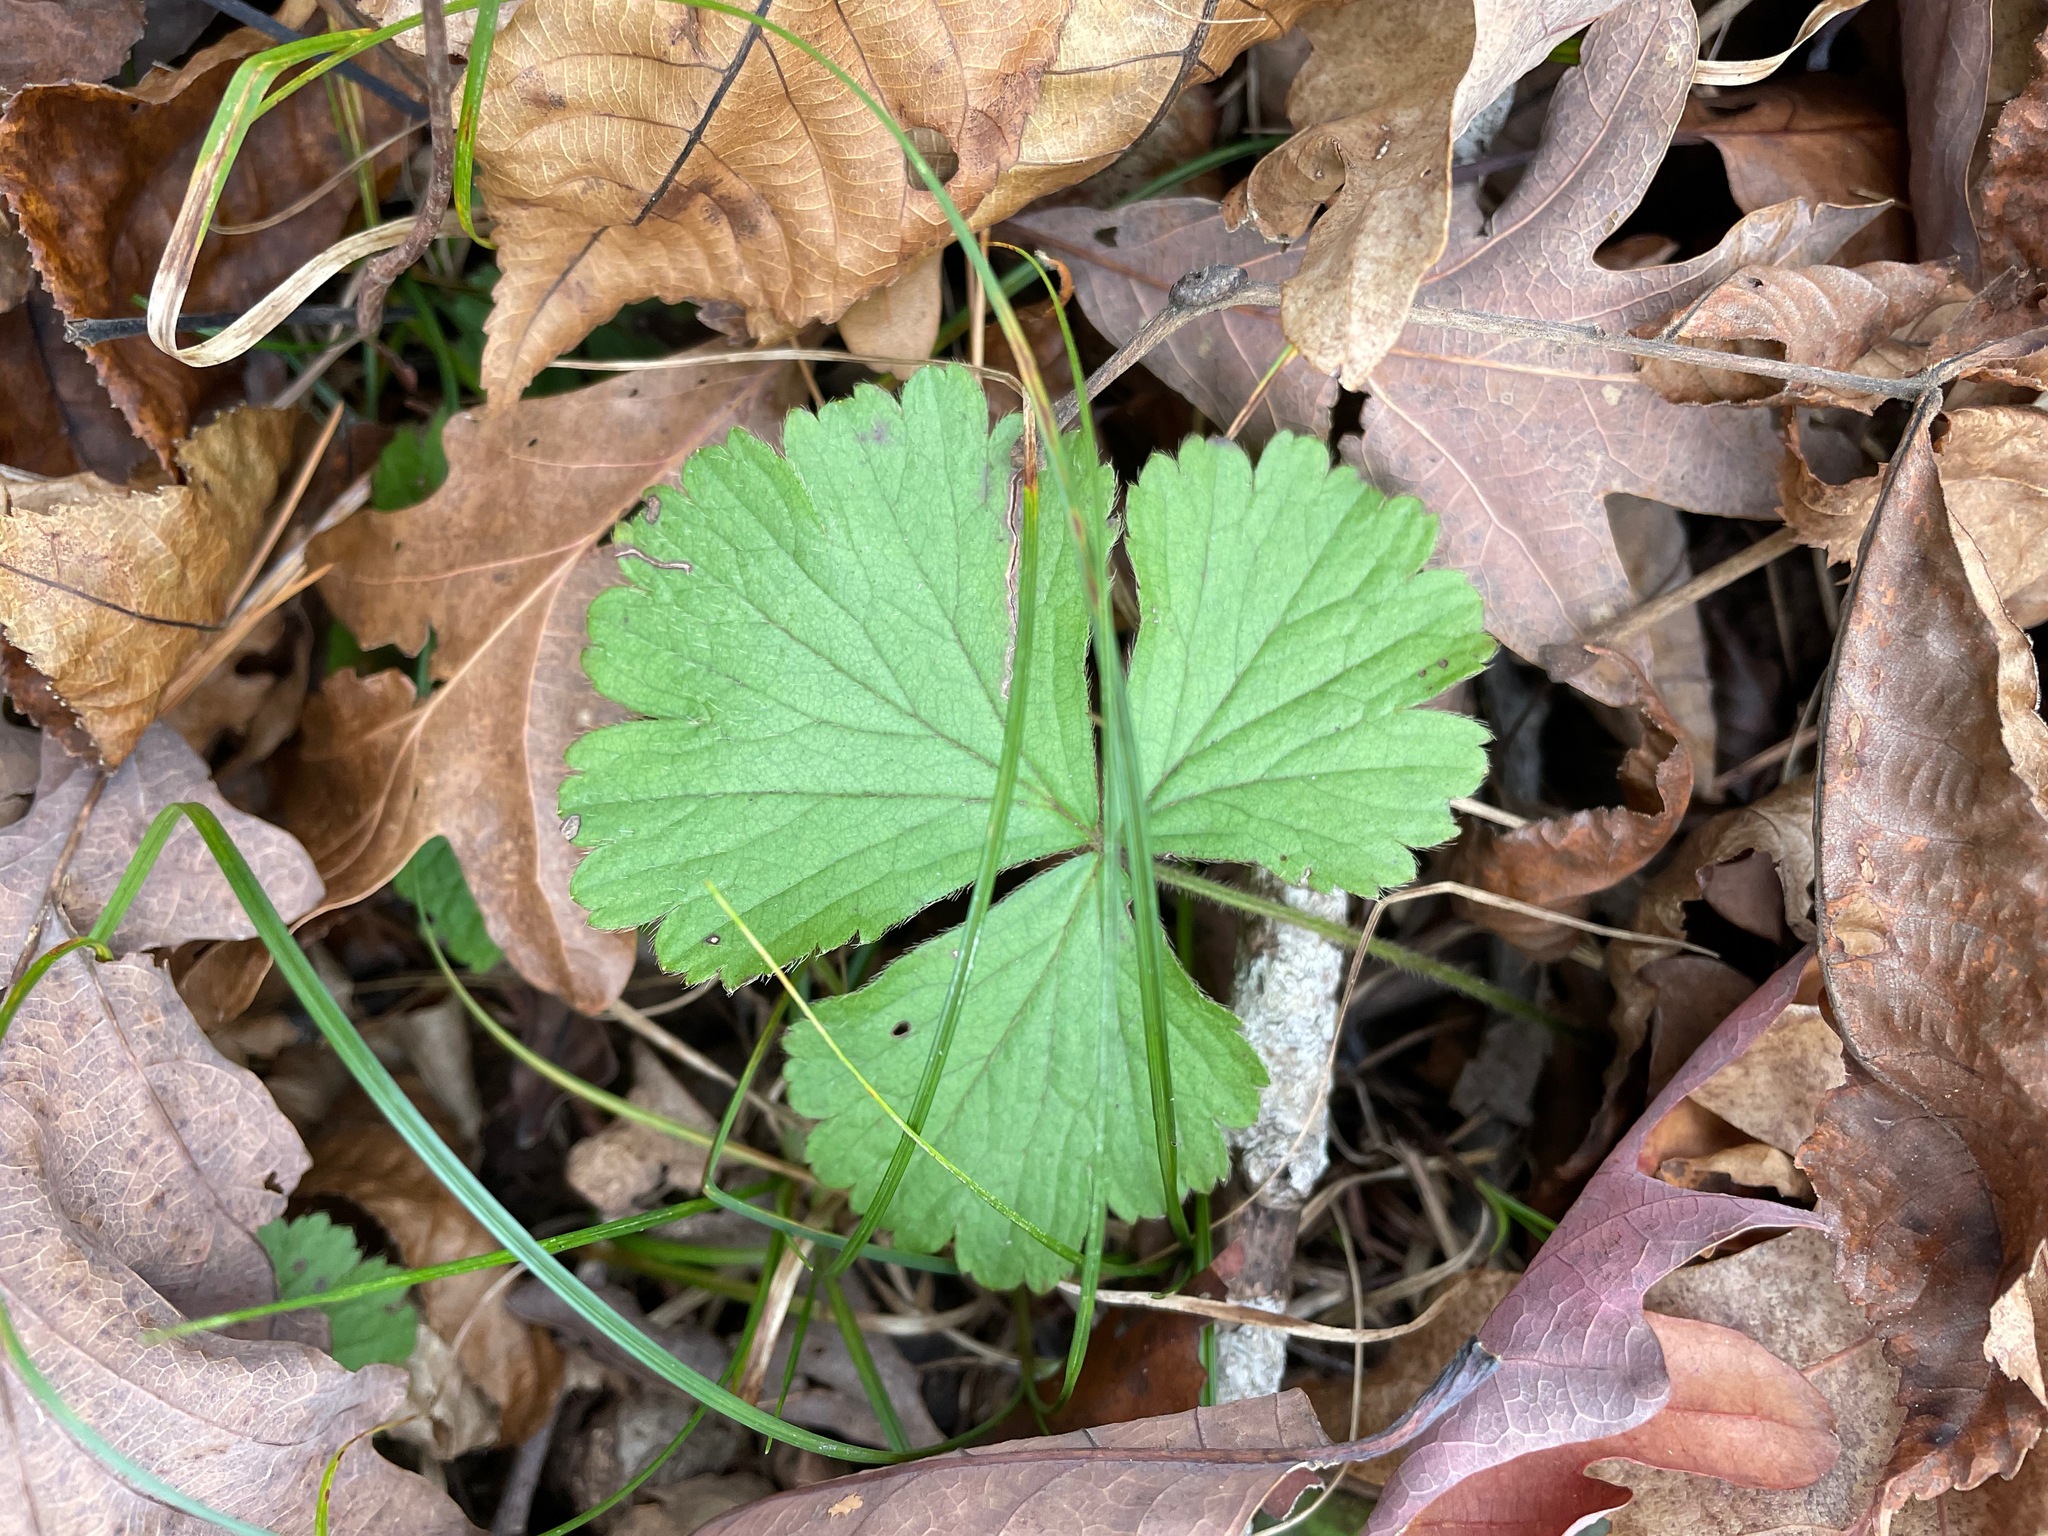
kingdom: Plantae
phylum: Tracheophyta
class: Magnoliopsida
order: Rosales
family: Rosaceae
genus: Geum
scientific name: Geum fragarioides
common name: Appalachian barren strawberry
